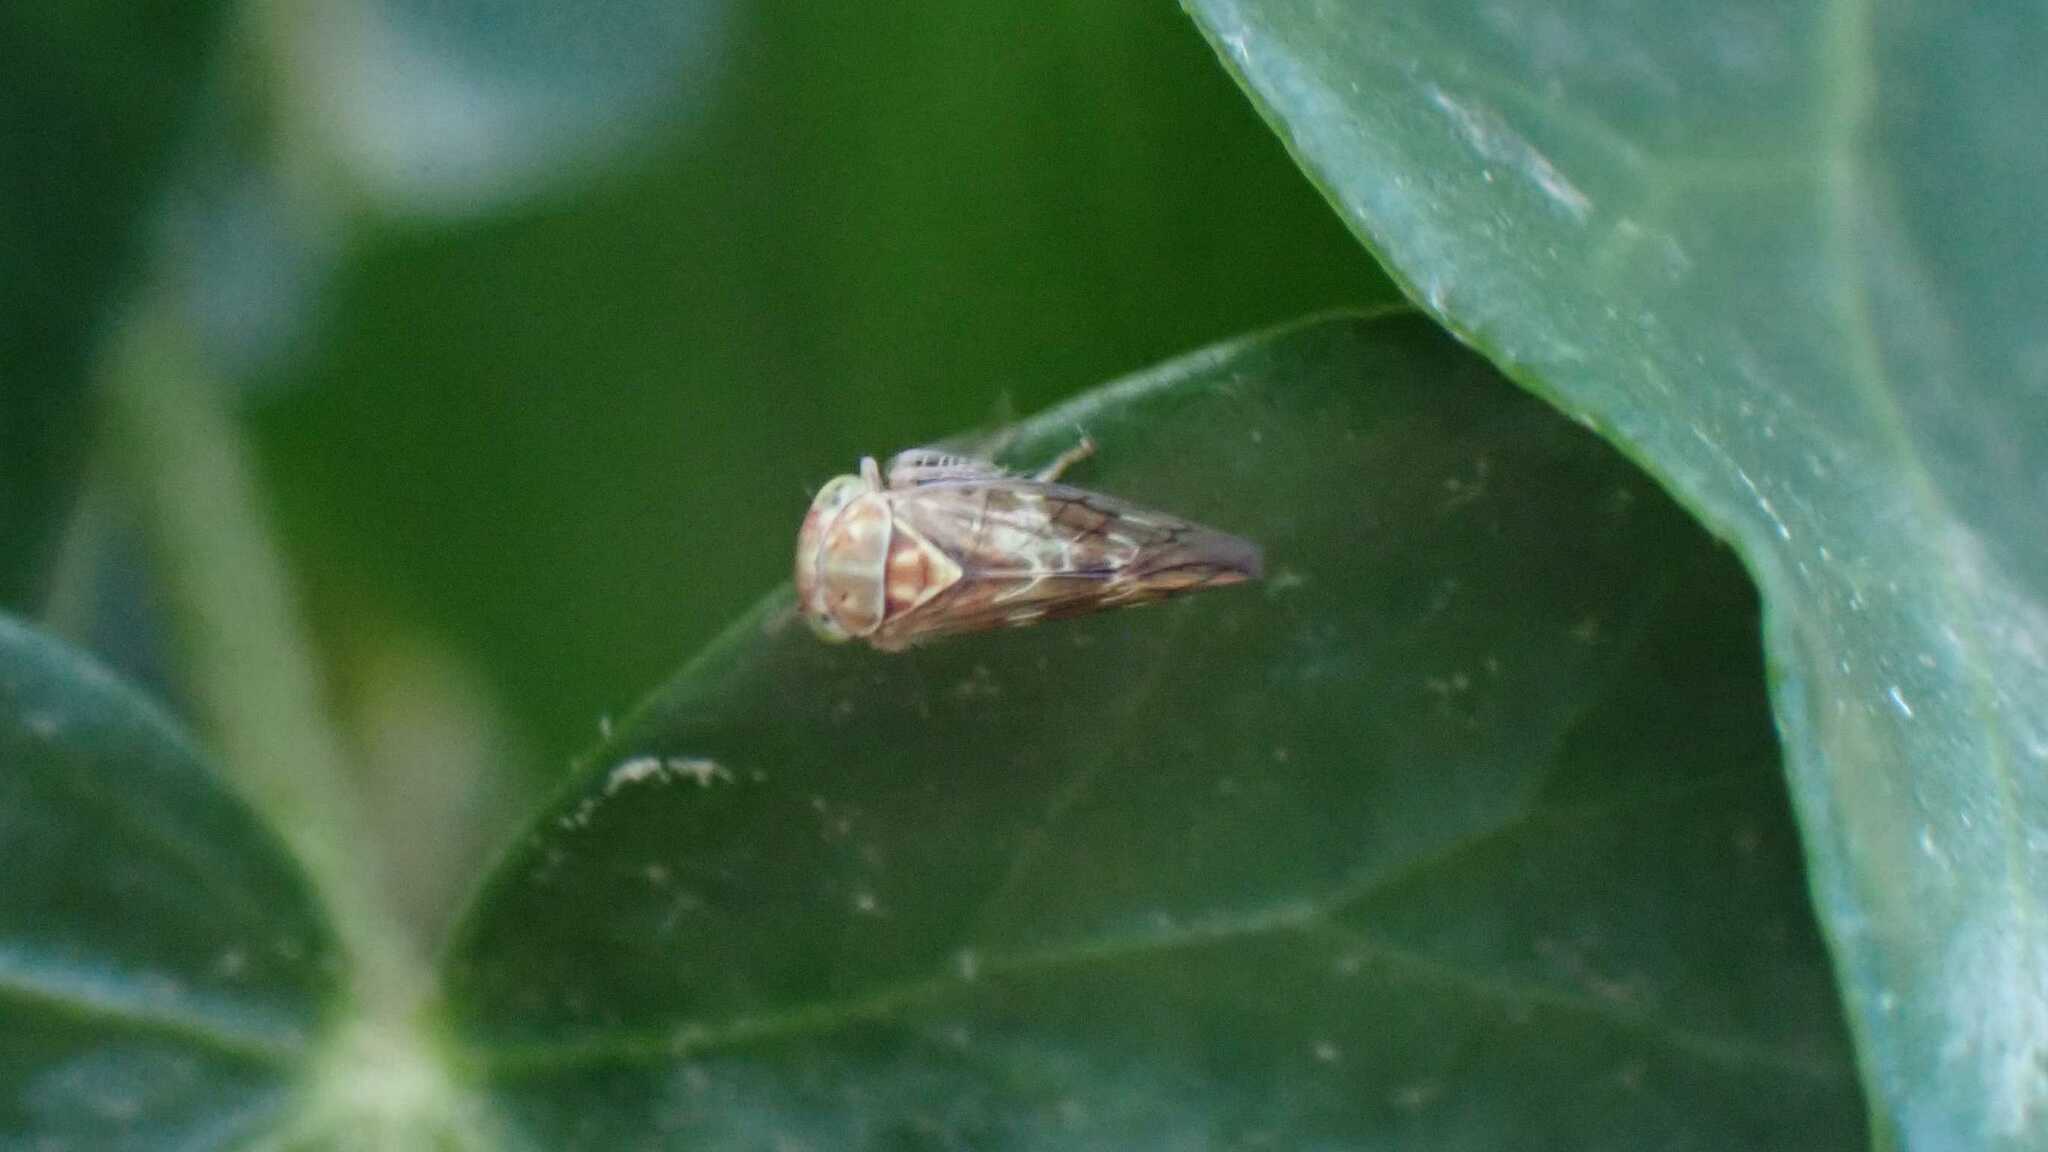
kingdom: Animalia
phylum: Arthropoda
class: Insecta
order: Hemiptera
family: Cicadellidae
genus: Tremulicerus
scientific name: Tremulicerus vitreus
